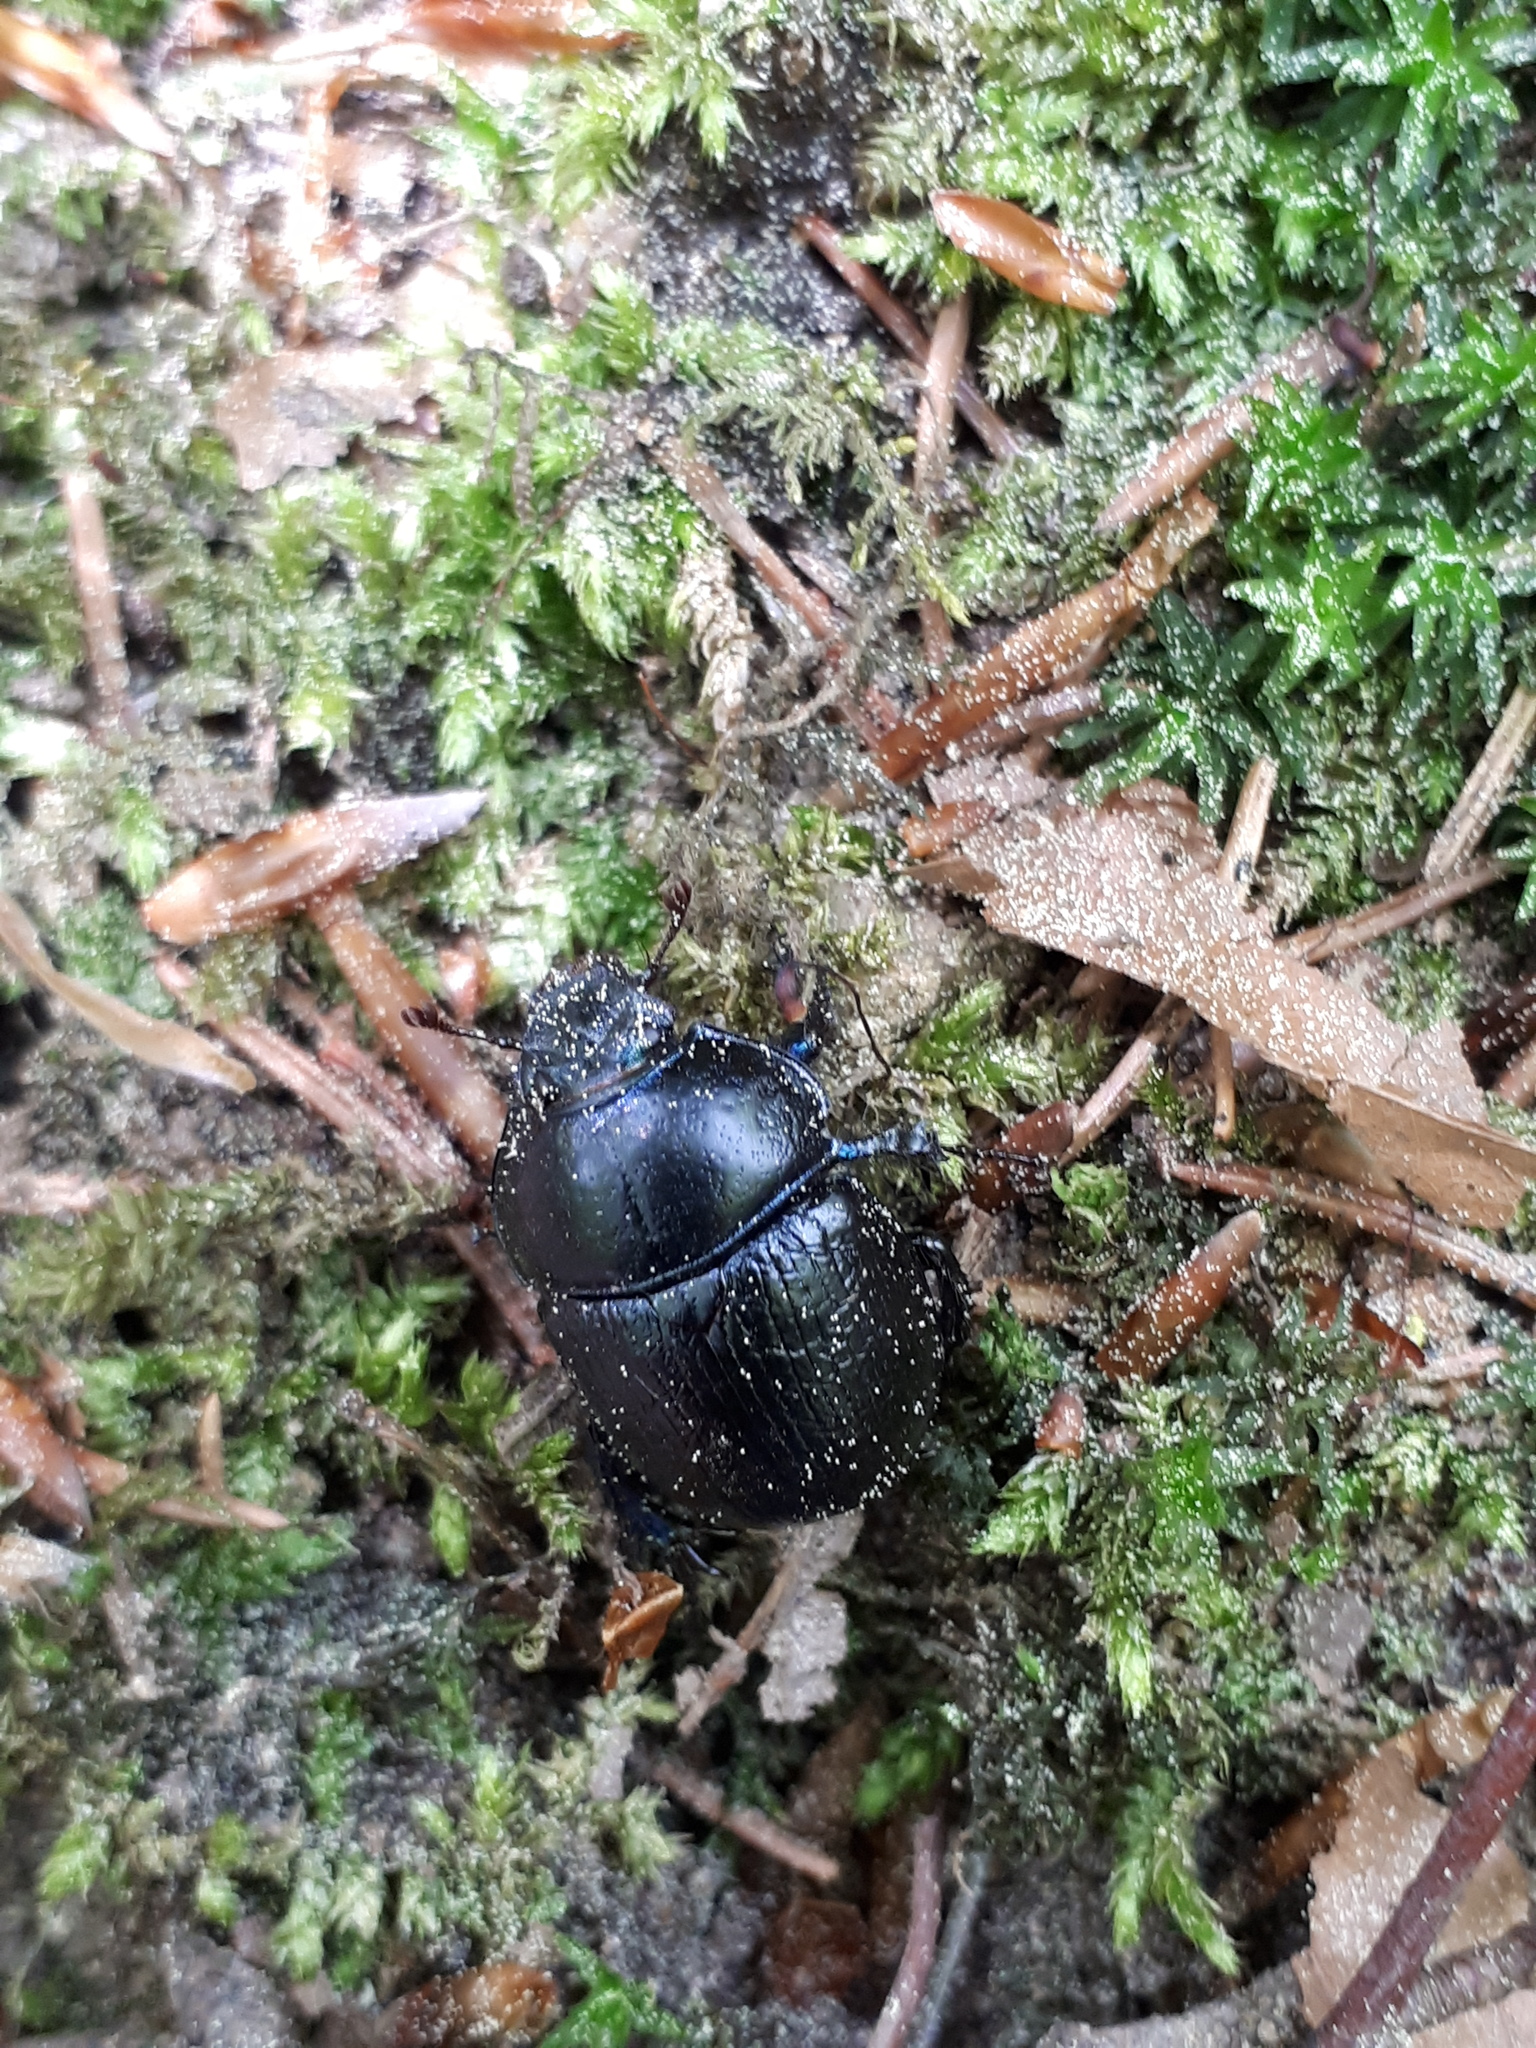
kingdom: Animalia
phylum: Arthropoda
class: Insecta
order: Coleoptera
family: Geotrupidae
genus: Anoplotrupes
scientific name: Anoplotrupes stercorosus
